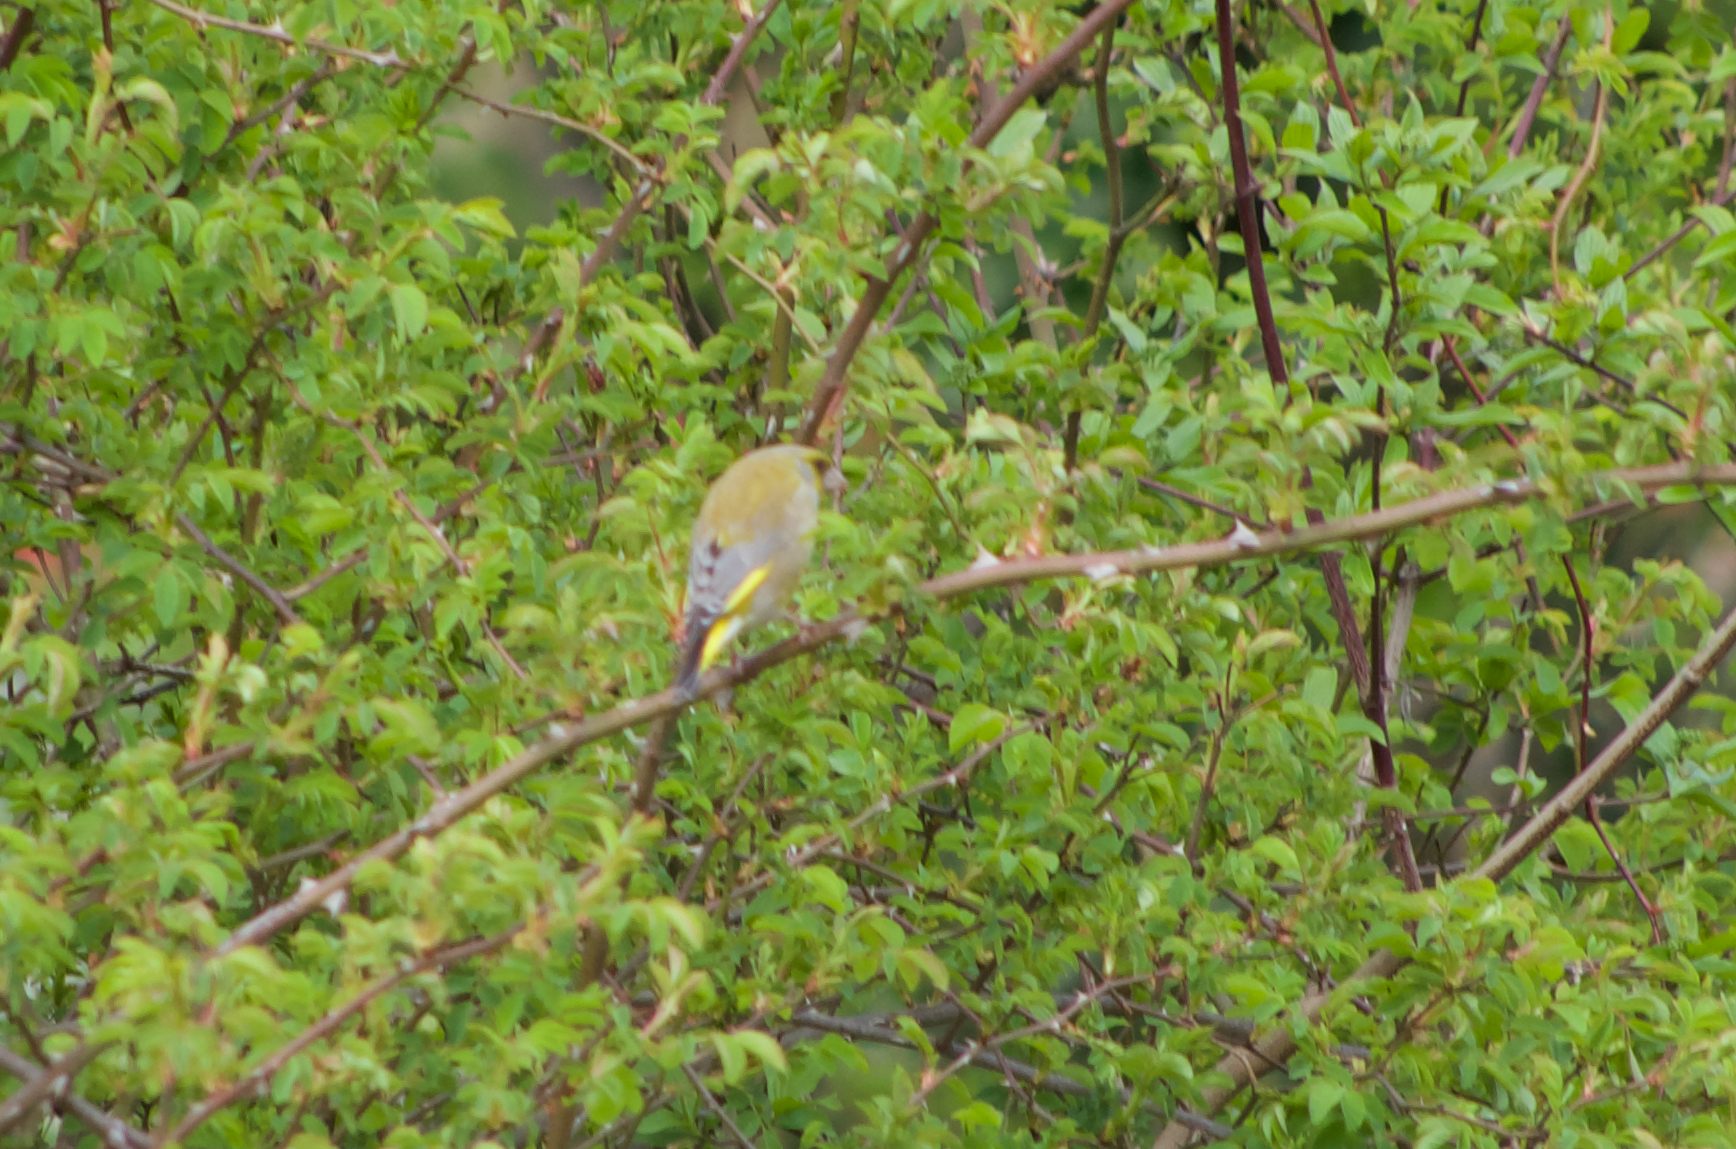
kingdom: Plantae
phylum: Tracheophyta
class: Liliopsida
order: Poales
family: Poaceae
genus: Chloris
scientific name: Chloris chloris
